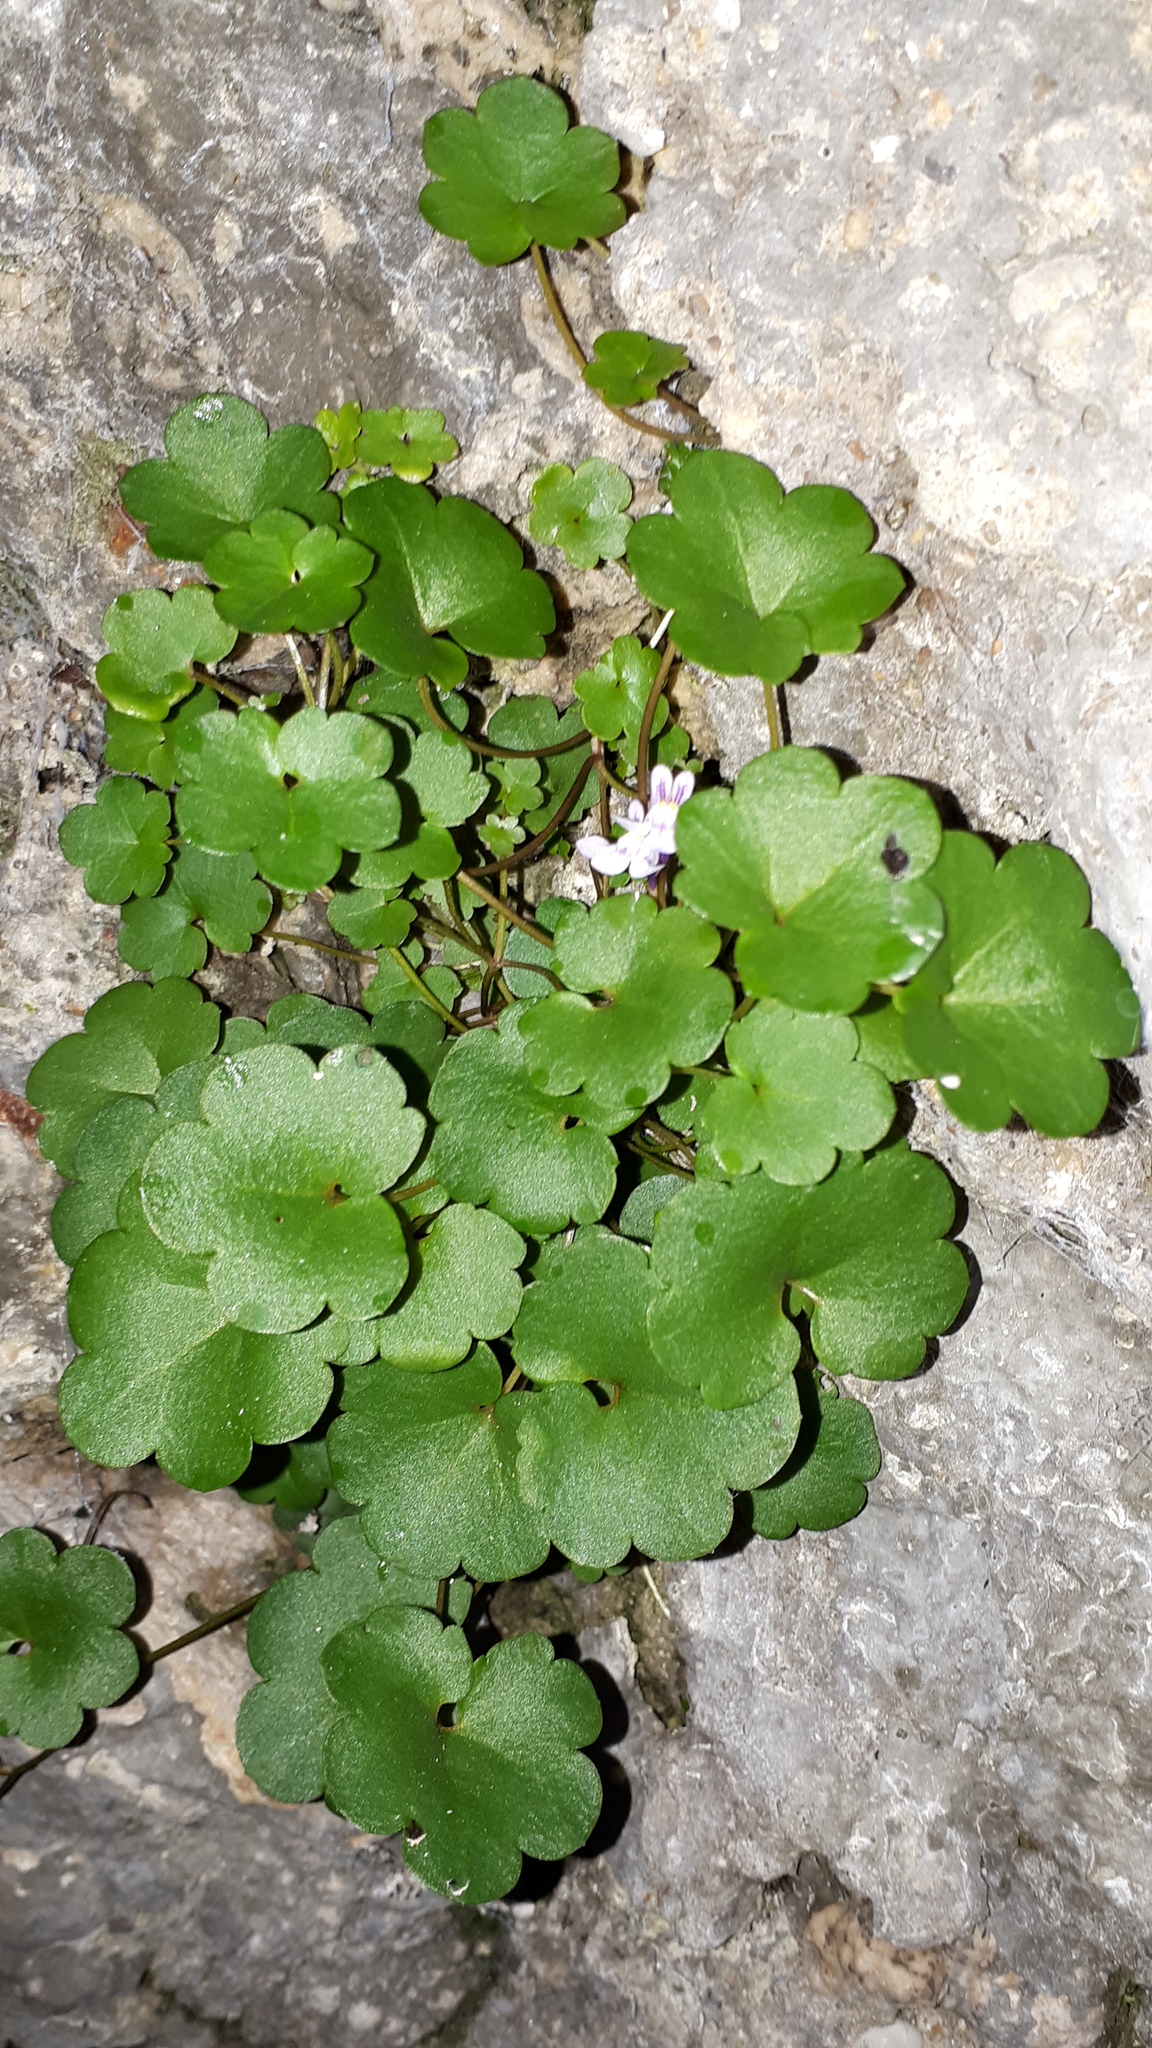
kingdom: Plantae
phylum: Tracheophyta
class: Magnoliopsida
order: Lamiales
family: Plantaginaceae
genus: Cymbalaria
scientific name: Cymbalaria muralis
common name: Ivy-leaved toadflax
